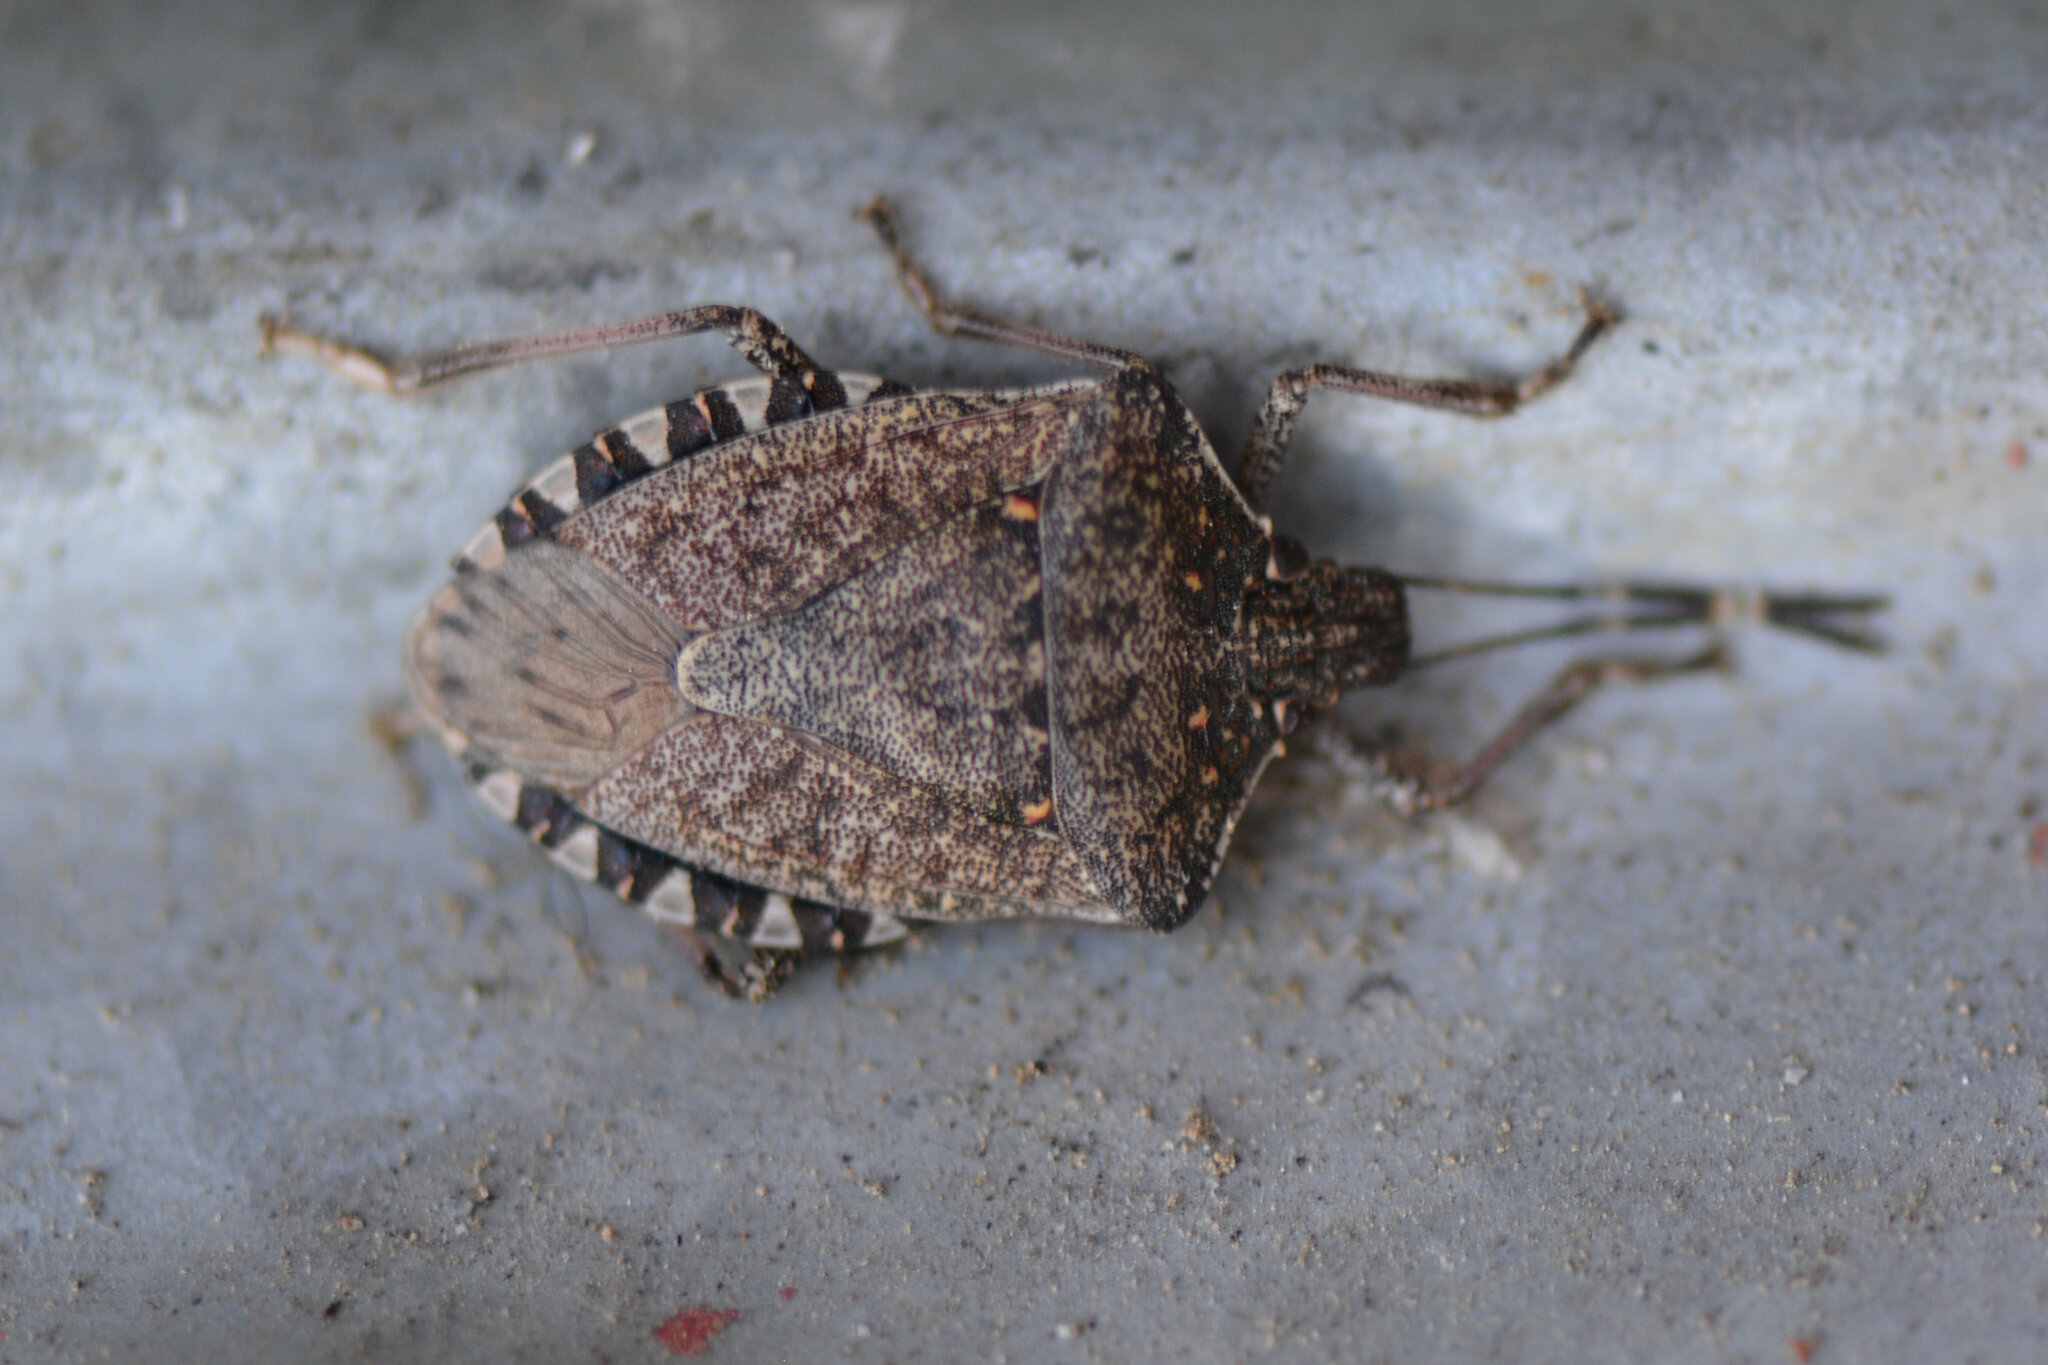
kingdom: Animalia
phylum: Arthropoda
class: Insecta
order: Hemiptera
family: Pentatomidae
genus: Halyomorpha
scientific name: Halyomorpha halys
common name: Brown marmorated stink bug
